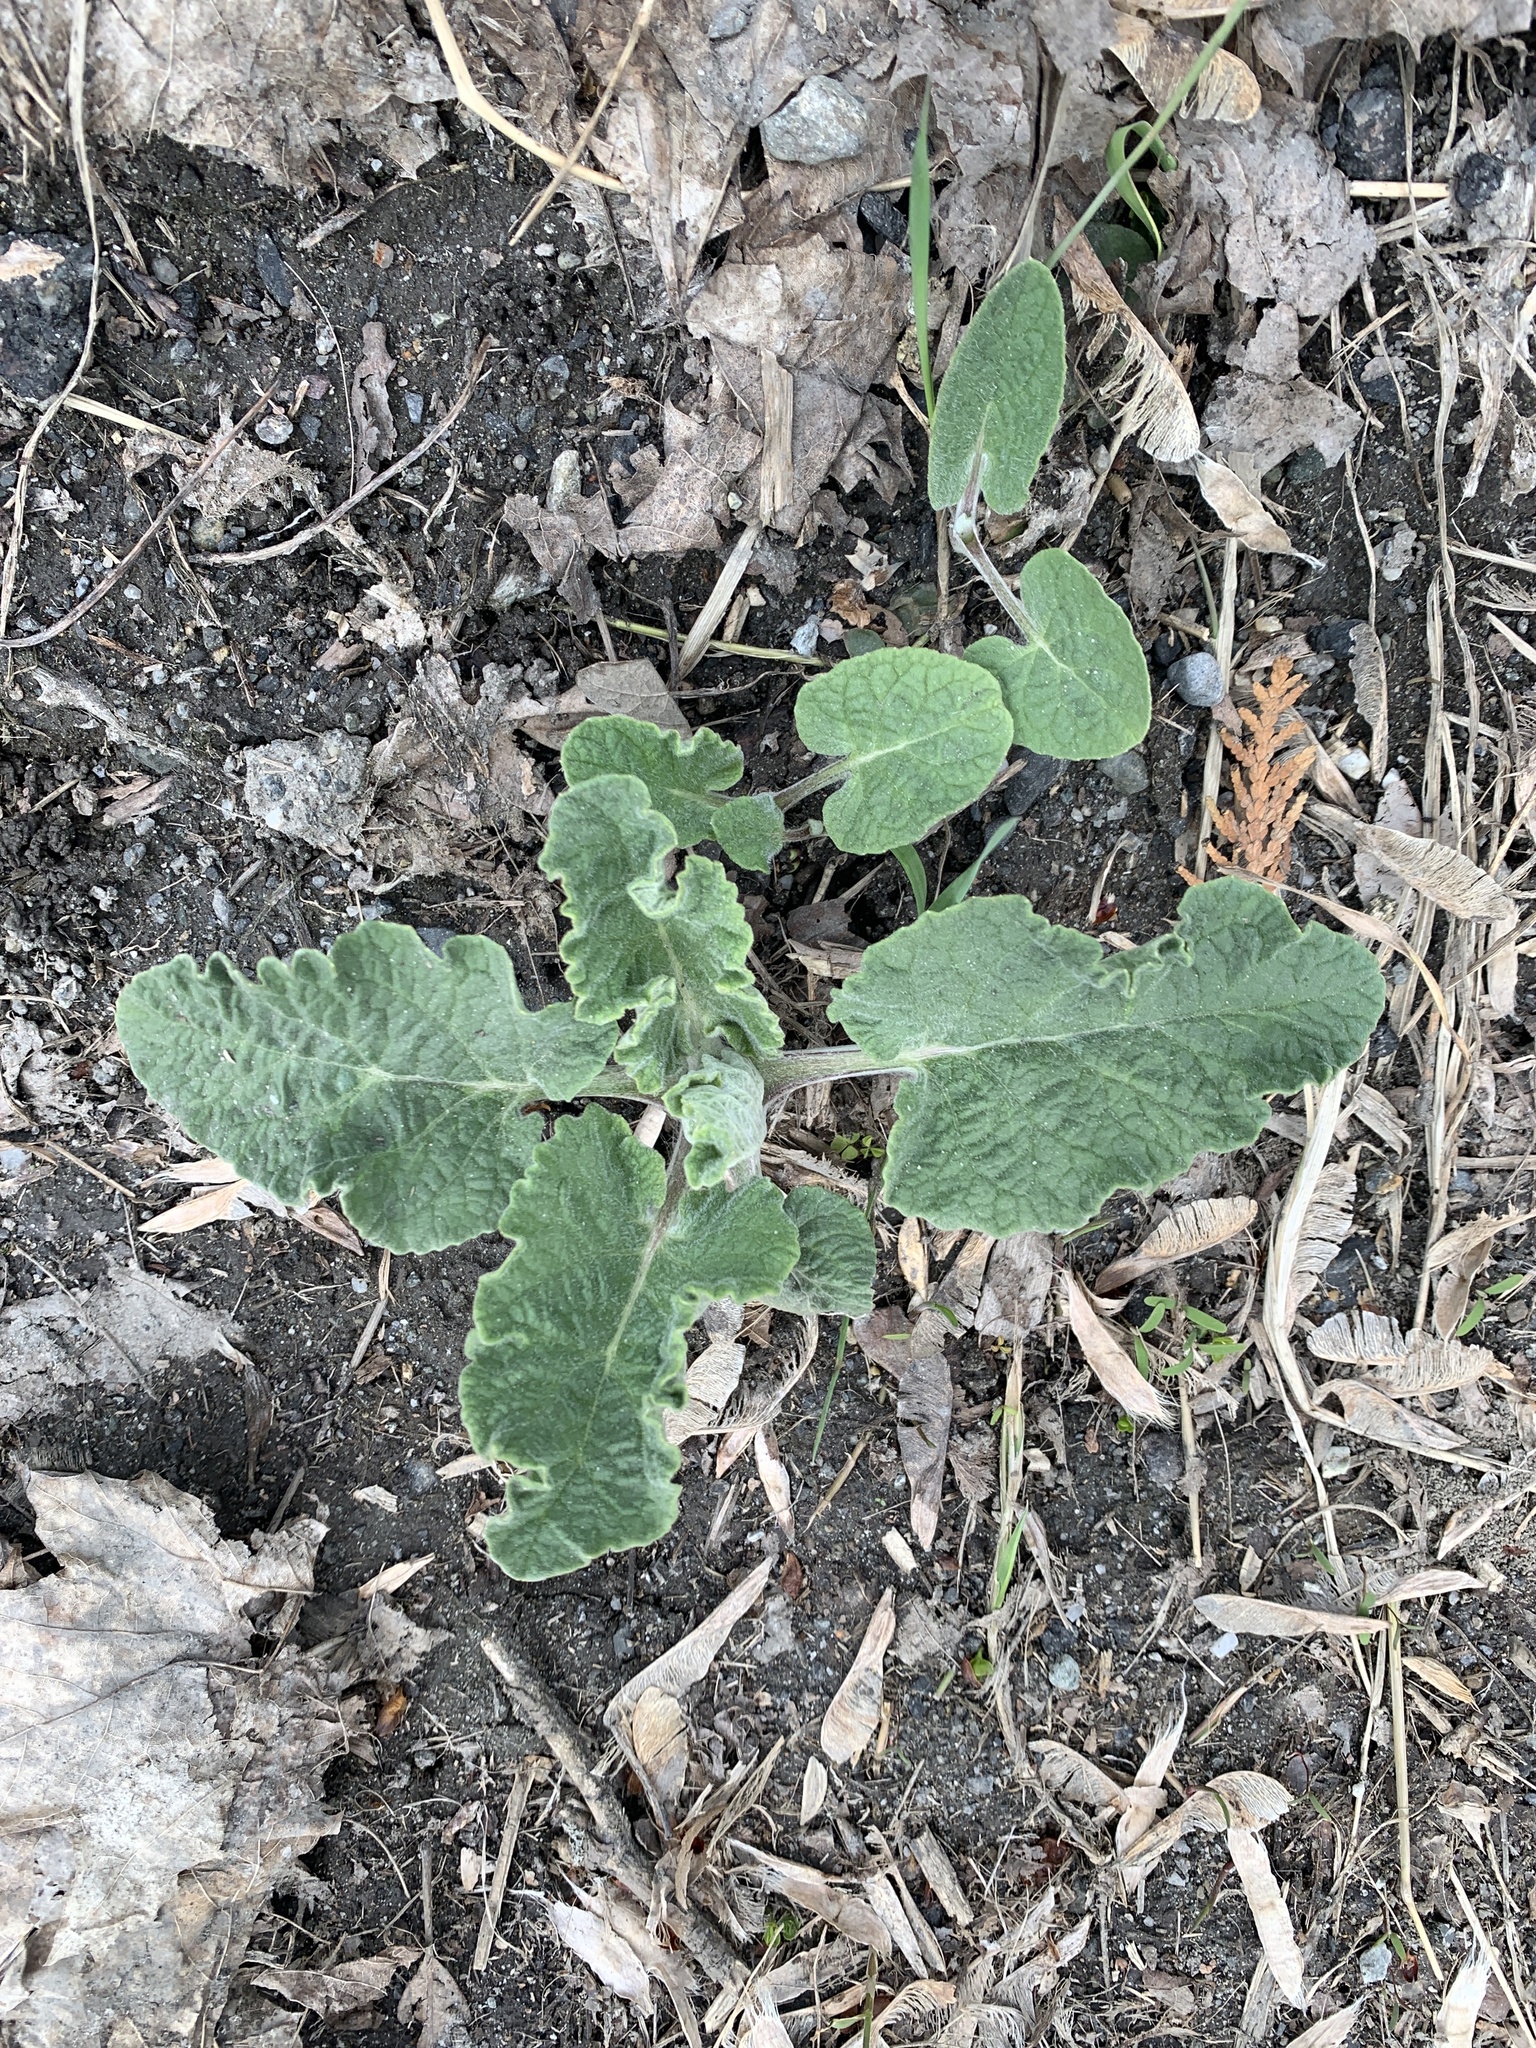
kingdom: Plantae
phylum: Tracheophyta
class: Magnoliopsida
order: Asterales
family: Asteraceae
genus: Arctium
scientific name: Arctium
